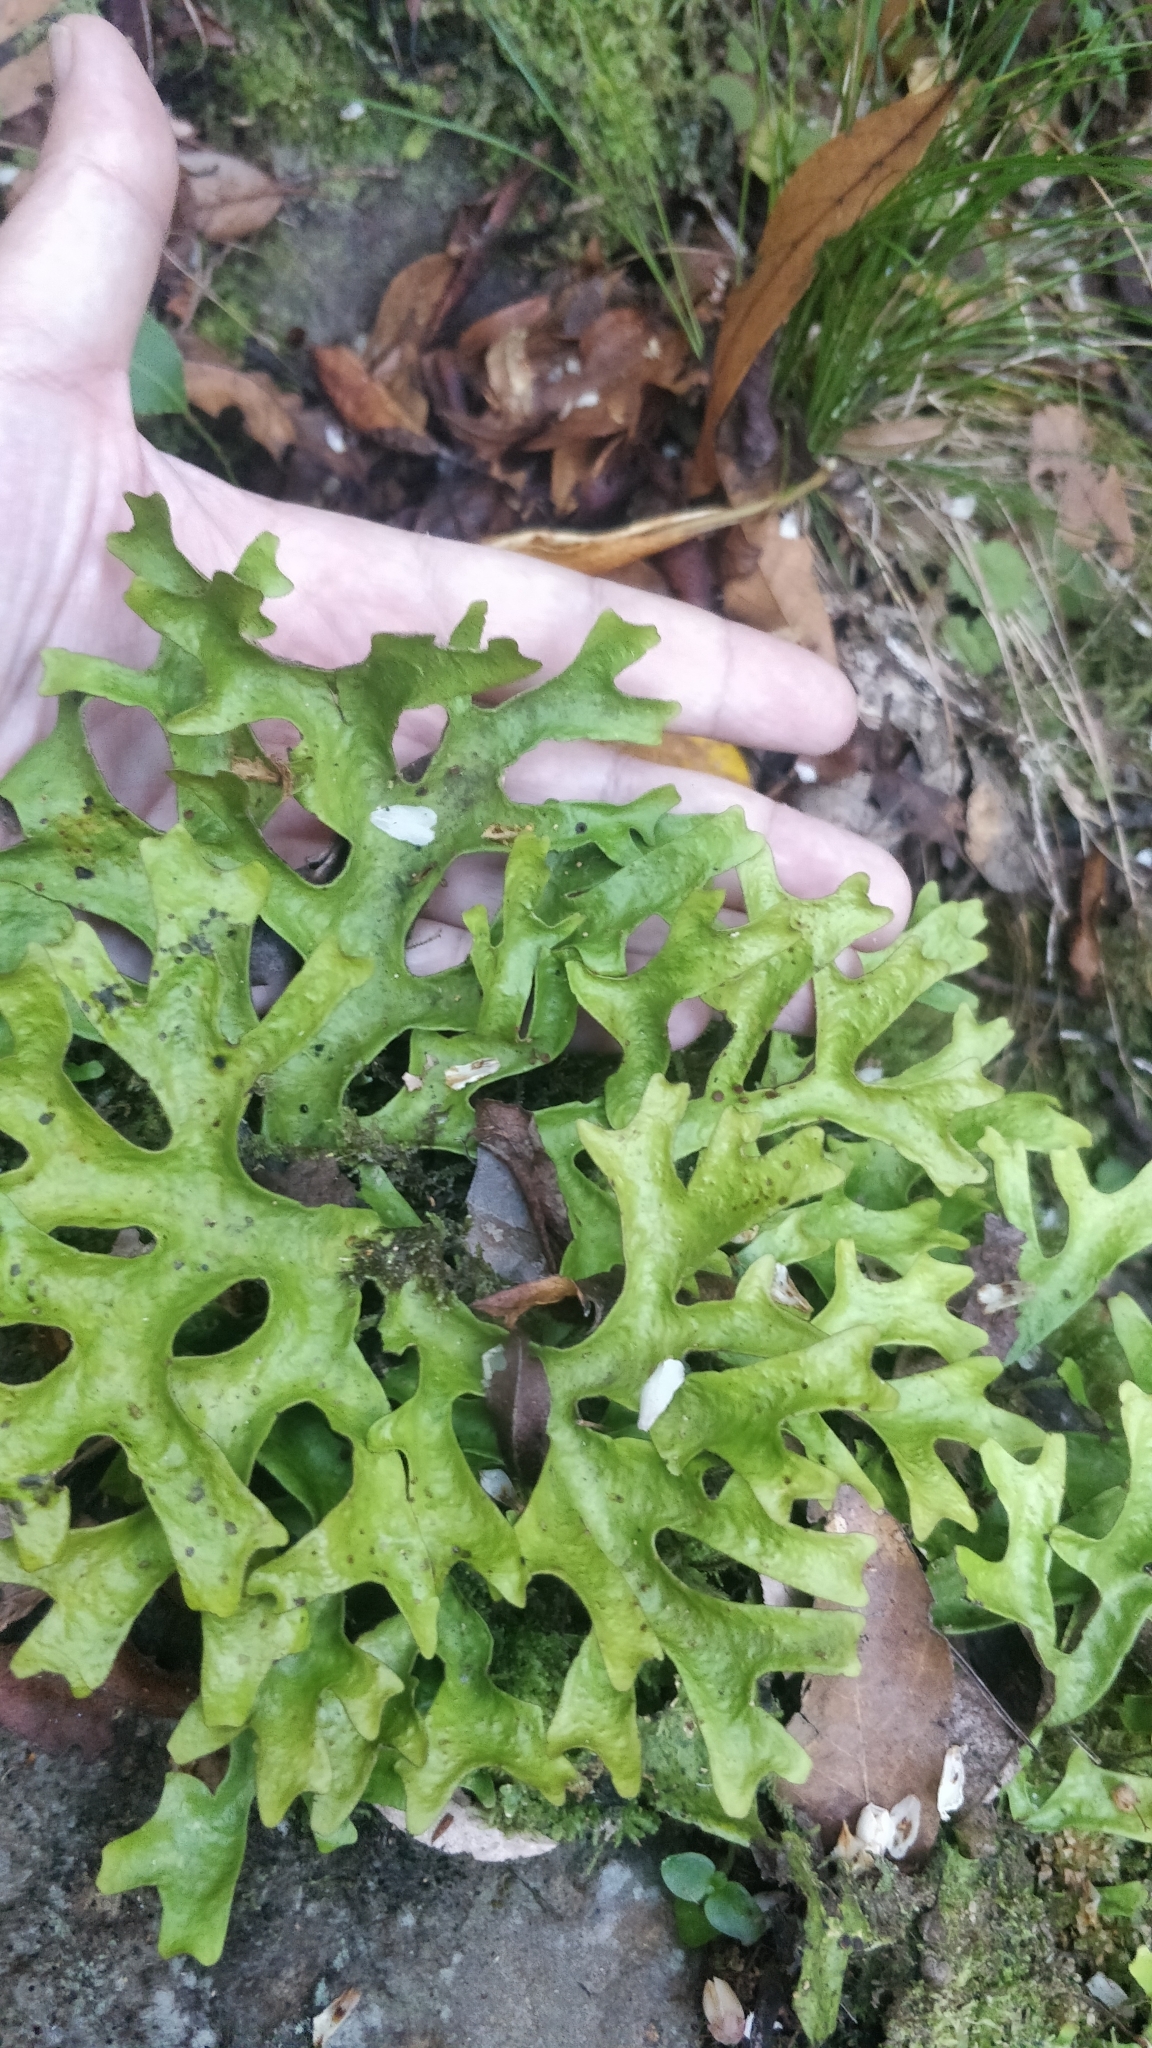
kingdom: Fungi
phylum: Ascomycota
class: Lecanoromycetes
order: Peltigerales
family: Lobariaceae
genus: Sticta
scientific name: Sticta canariensis
